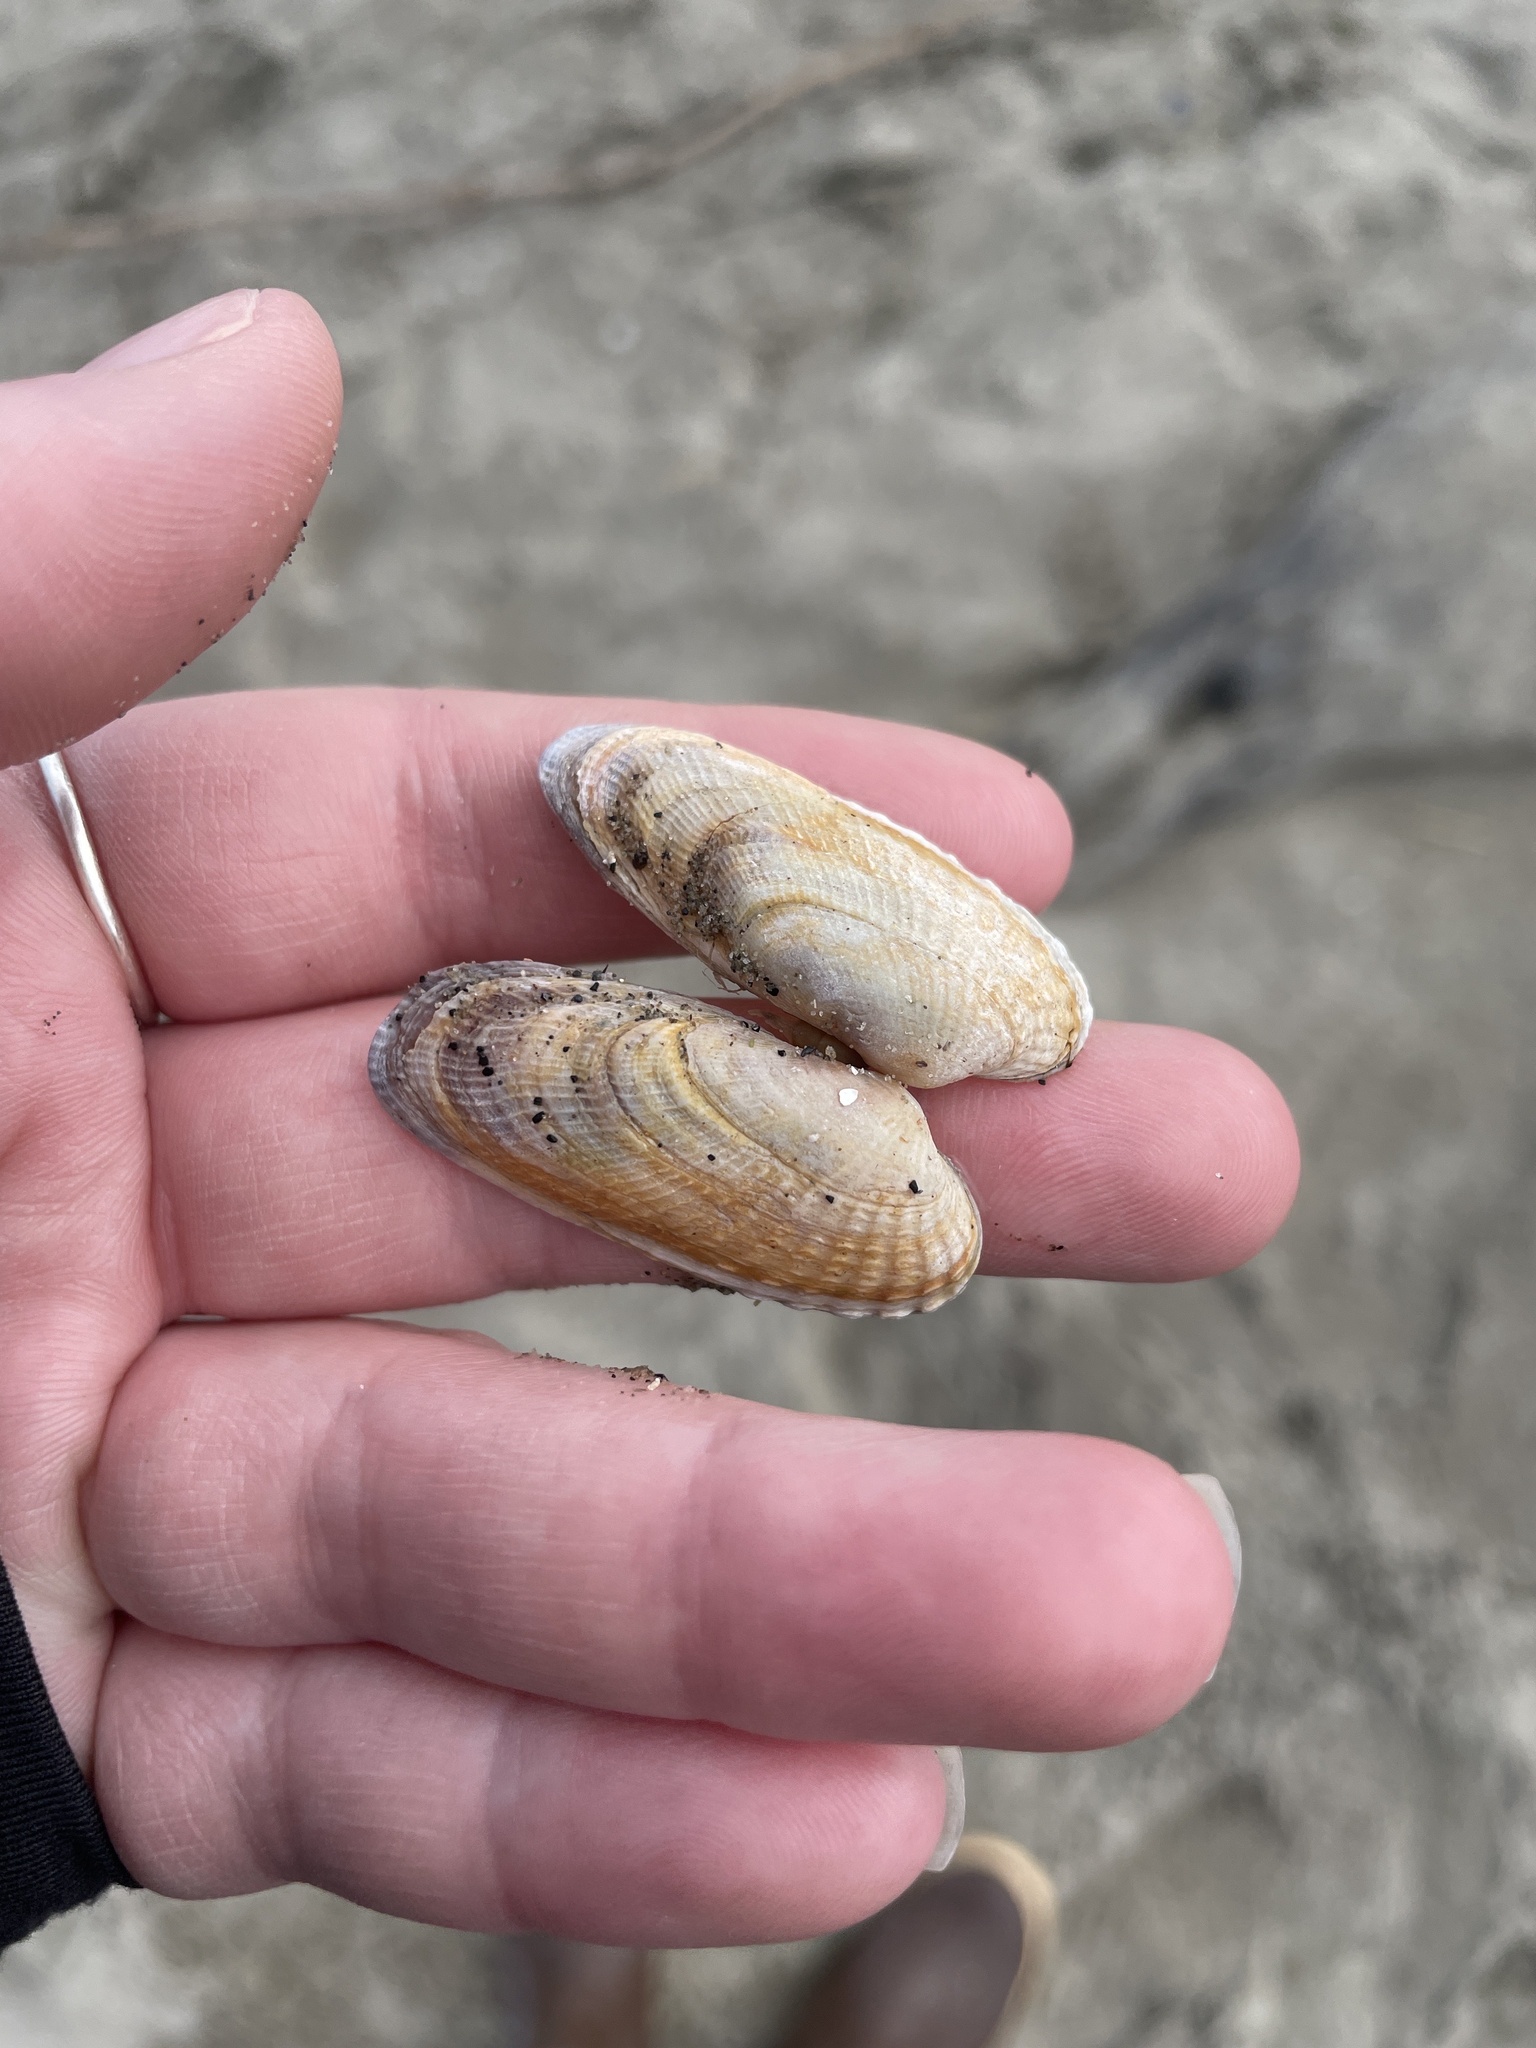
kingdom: Animalia
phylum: Mollusca
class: Bivalvia
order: Venerida
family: Veneridae
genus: Petricolaria
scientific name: Petricolaria pholadiformis
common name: American piddock
